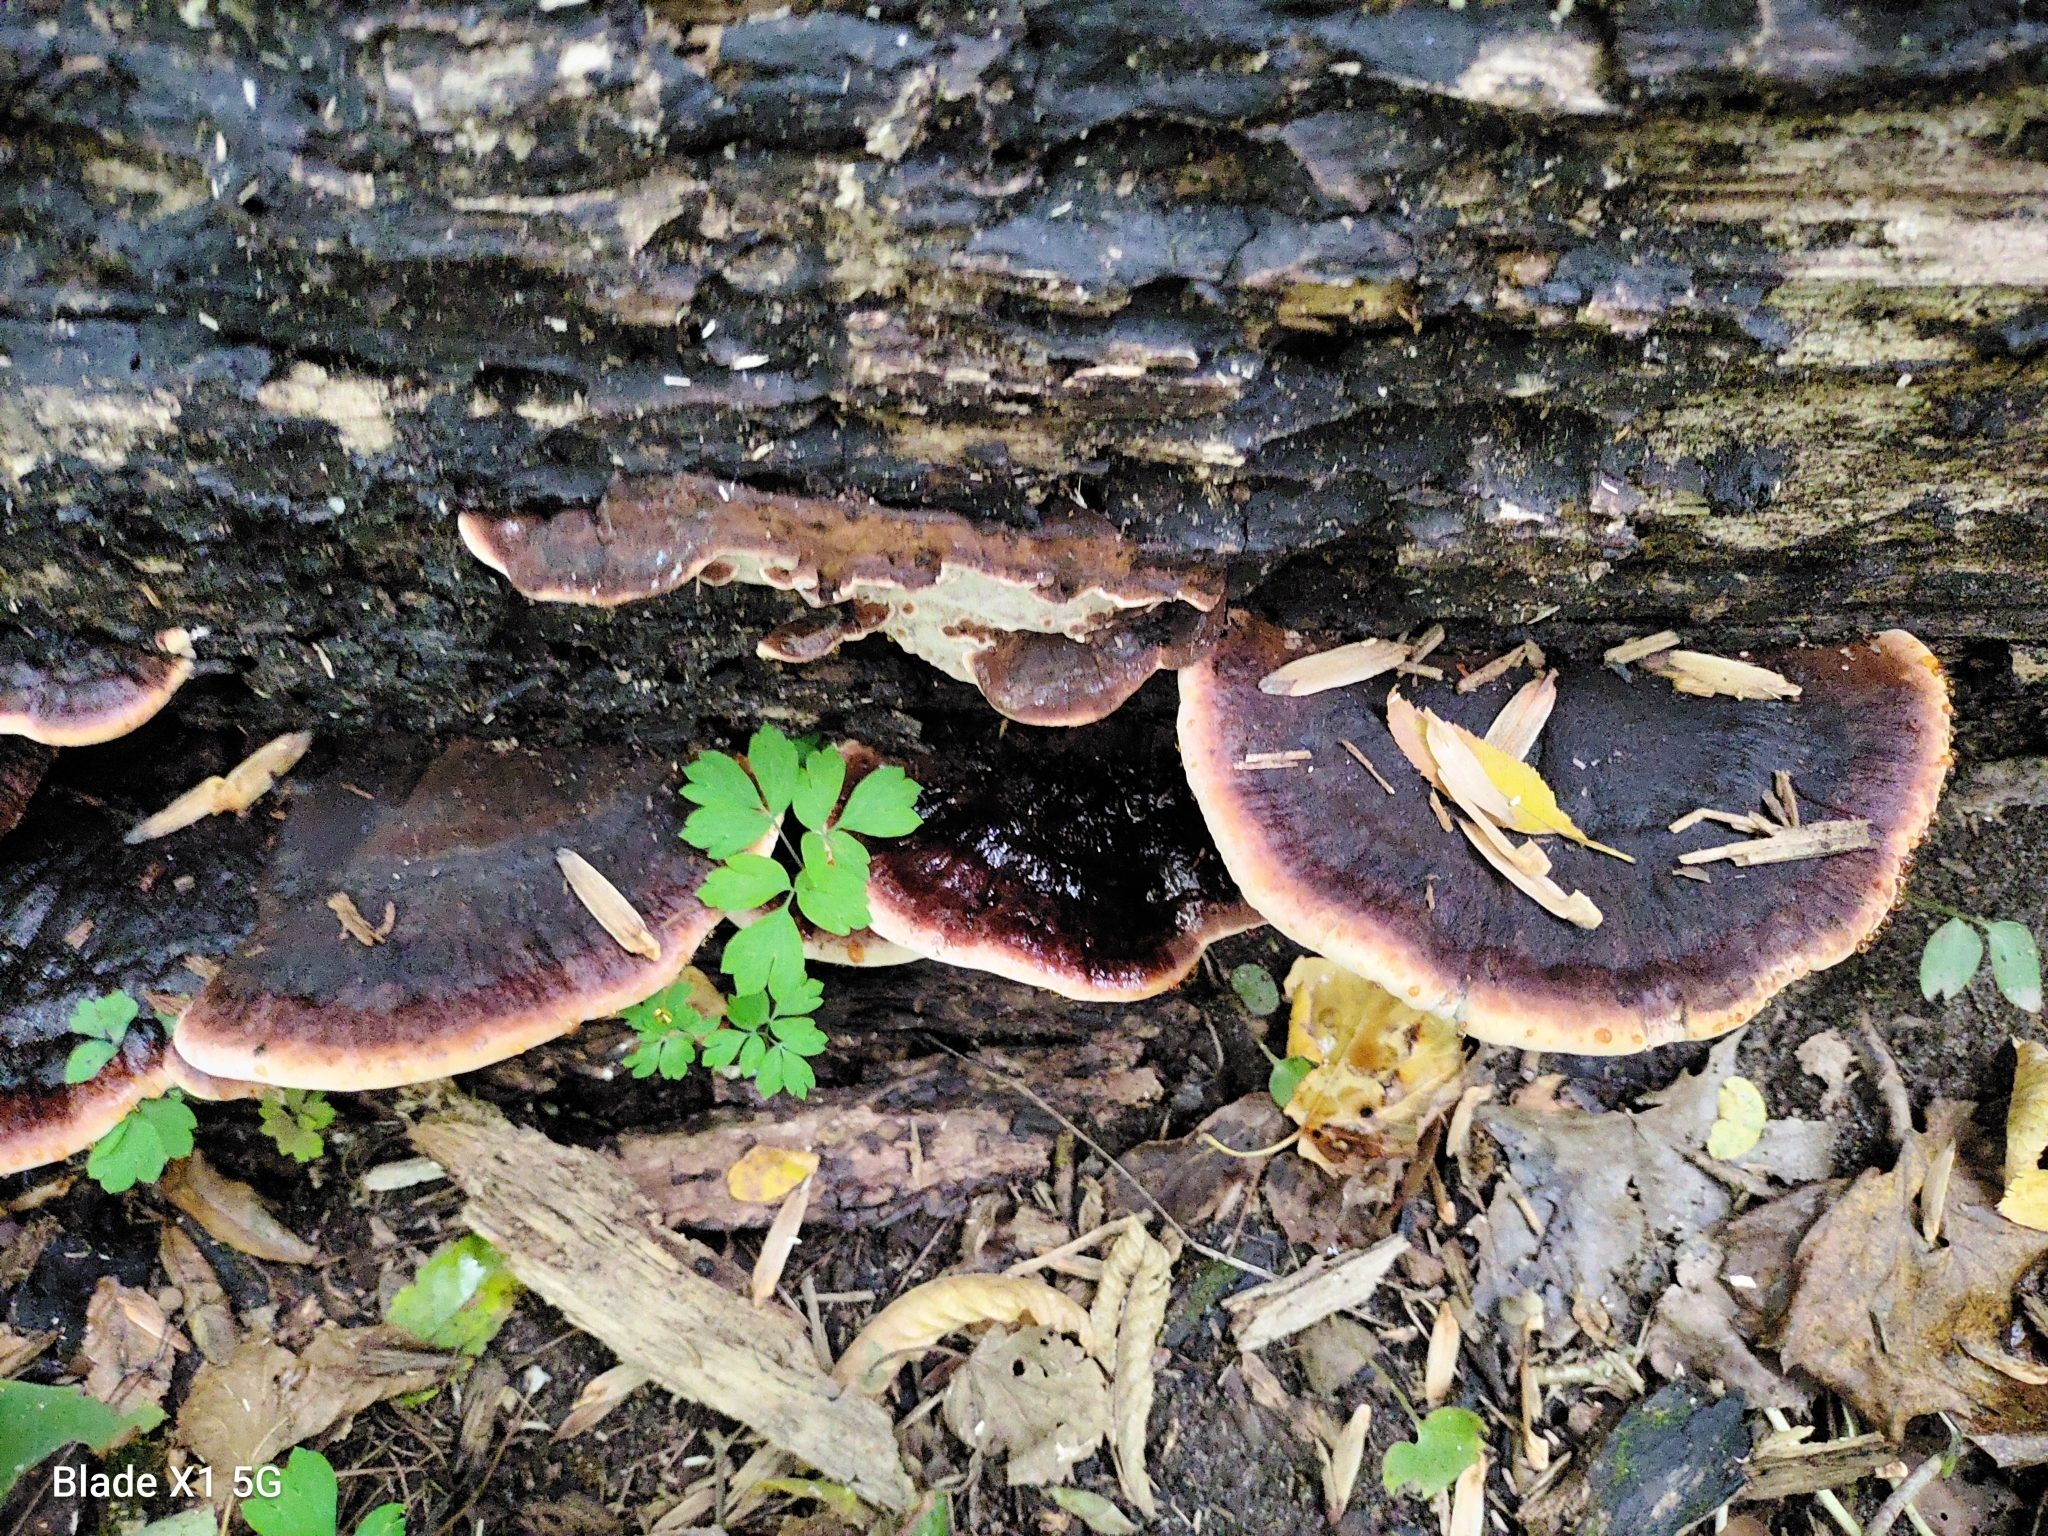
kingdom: Fungi
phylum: Basidiomycota
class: Agaricomycetes
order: Polyporales
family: Ischnodermataceae
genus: Ischnoderma
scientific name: Ischnoderma resinosum
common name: Resinous polypore
